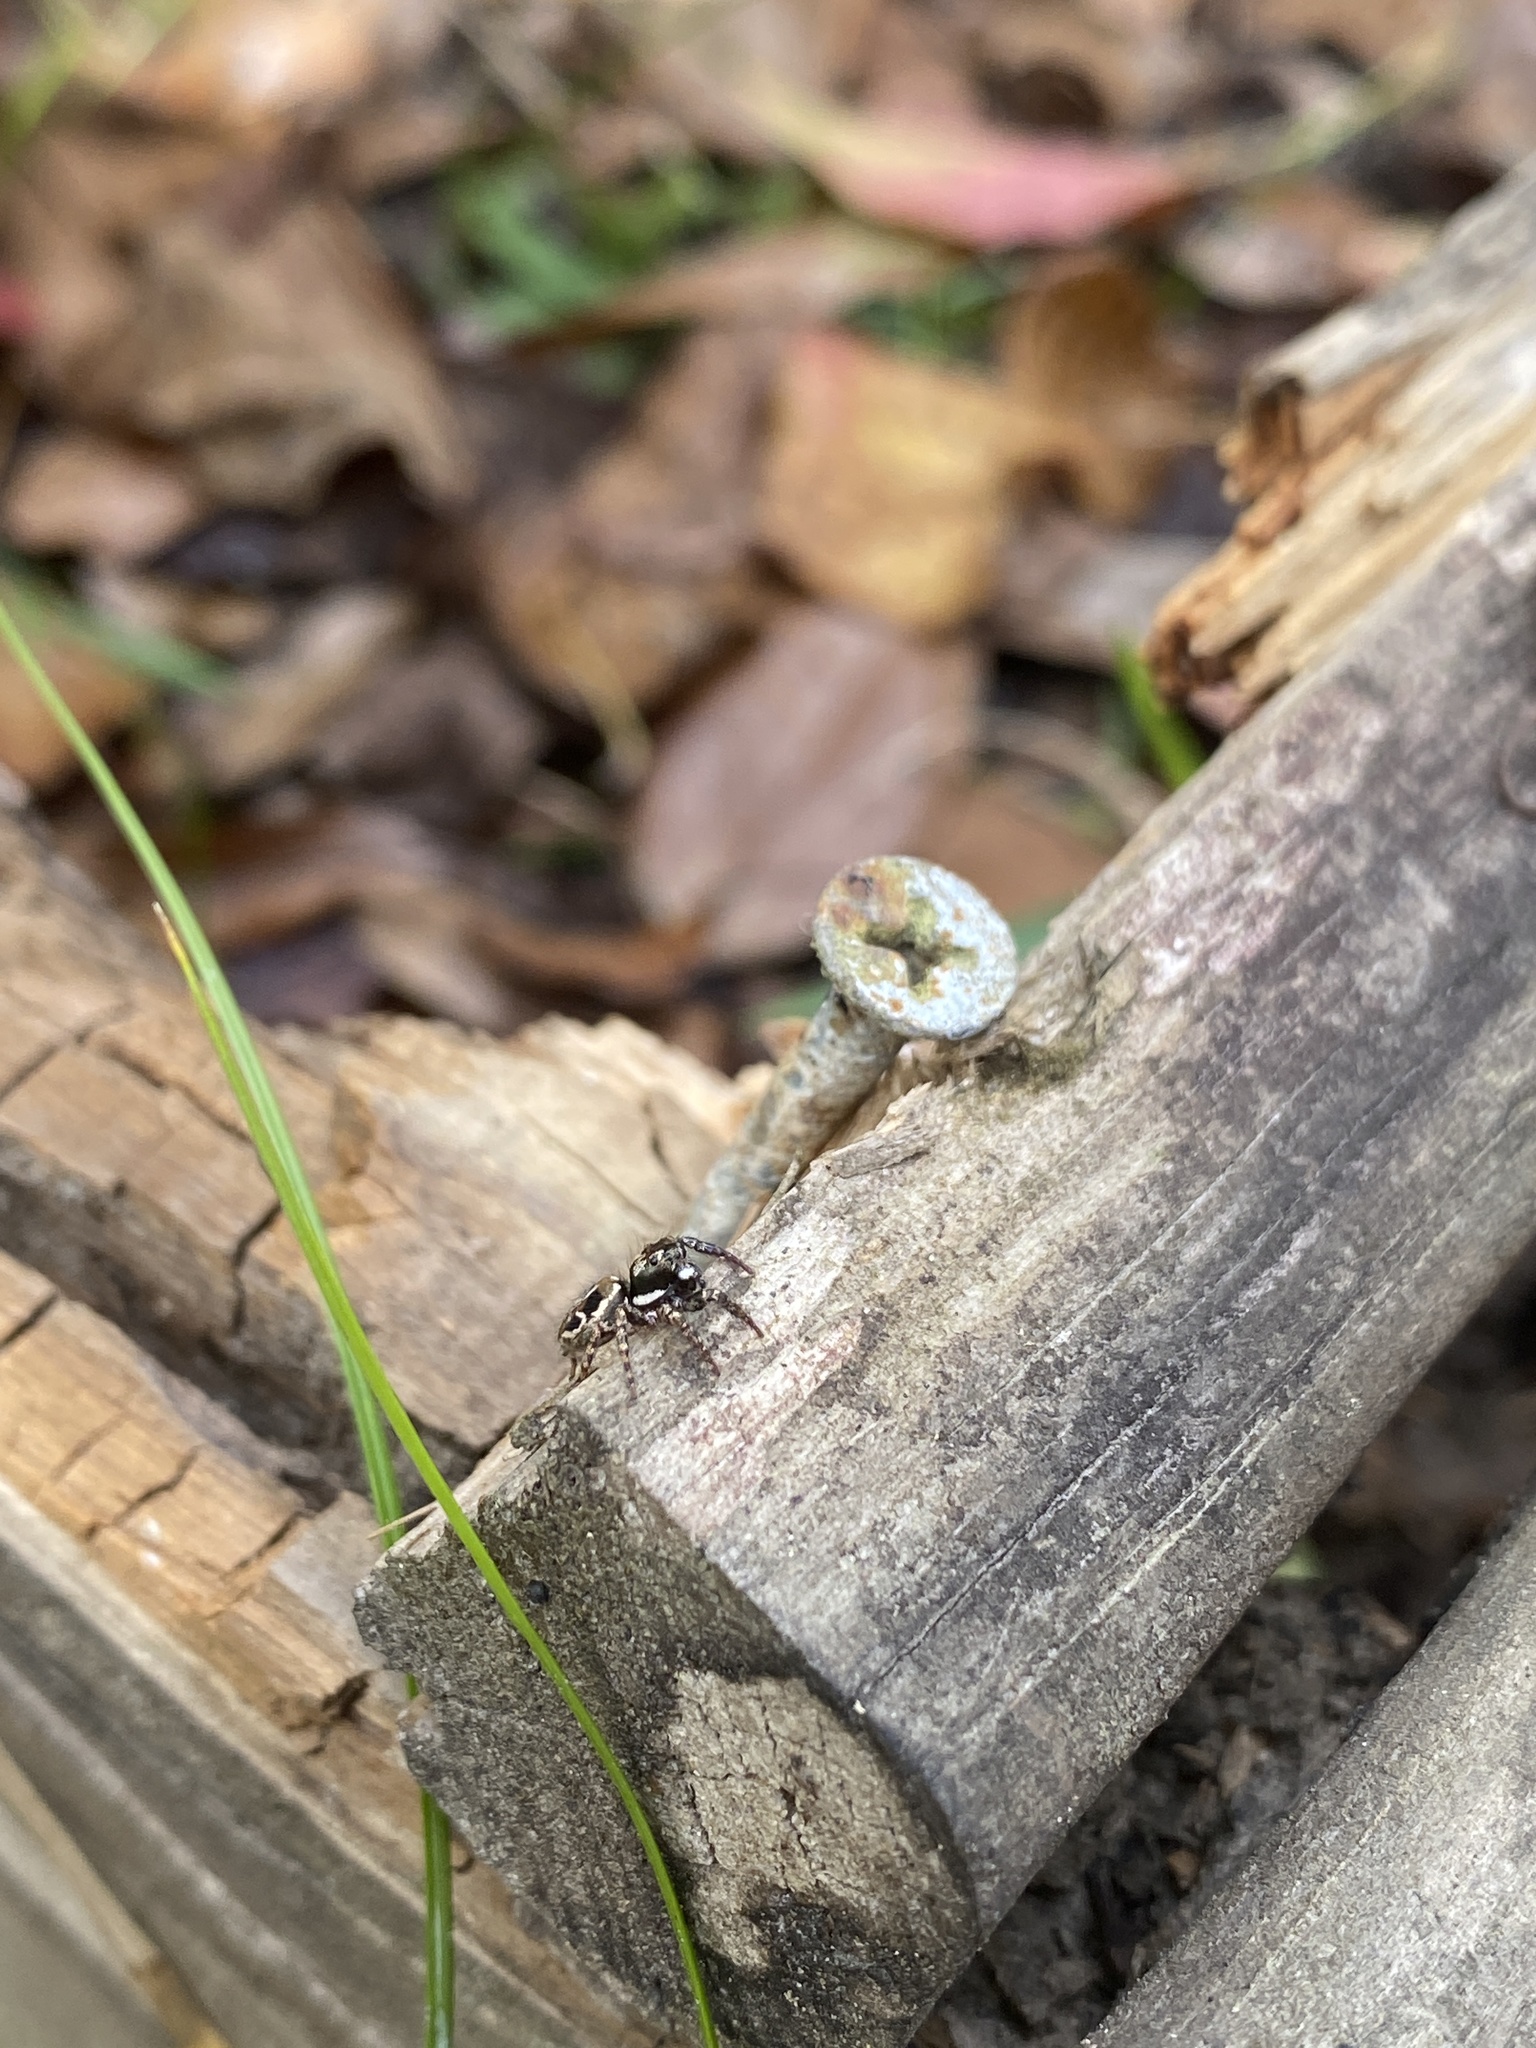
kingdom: Animalia
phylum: Arthropoda
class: Arachnida
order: Araneae
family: Salticidae
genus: Anasaitis
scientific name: Anasaitis canosa
